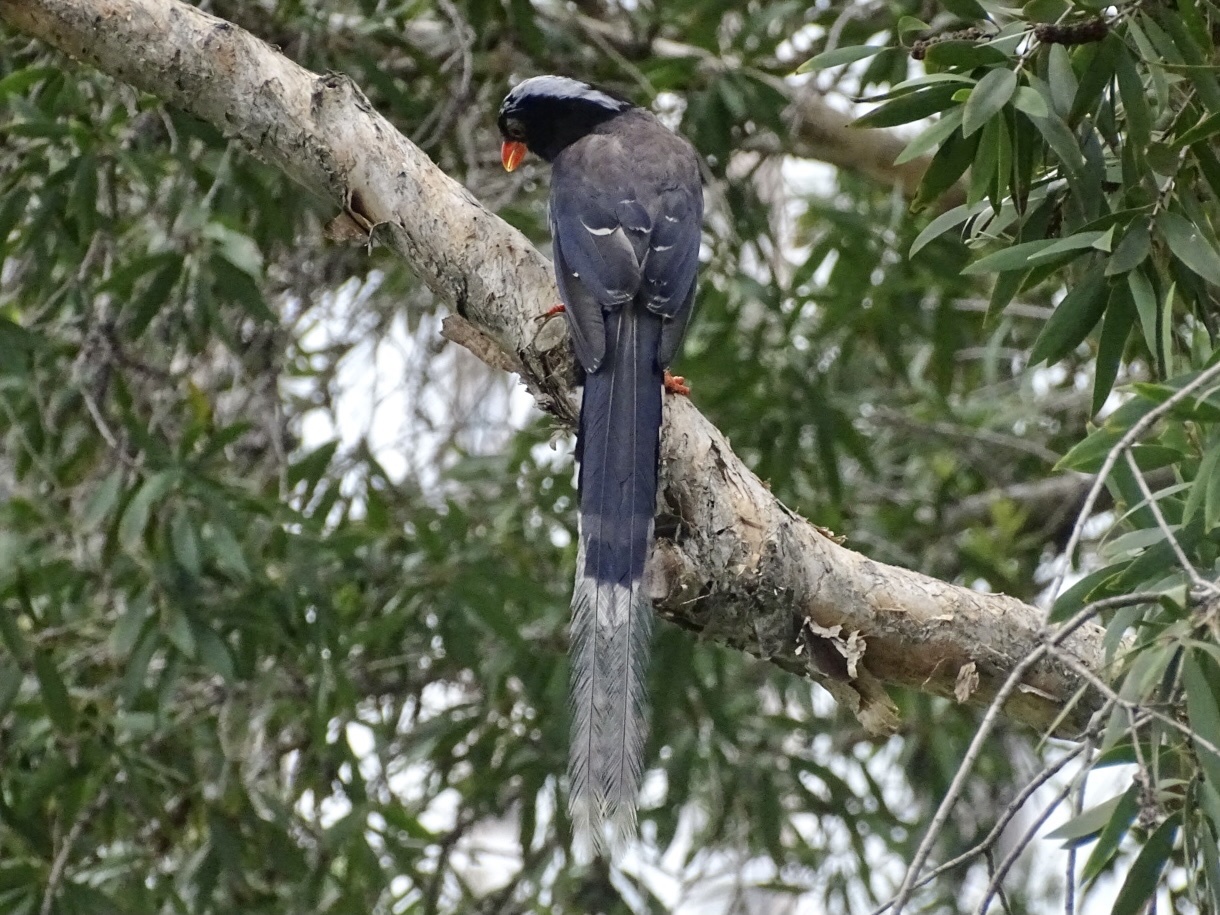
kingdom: Animalia
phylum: Chordata
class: Aves
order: Passeriformes
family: Corvidae
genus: Urocissa
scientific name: Urocissa erythroryncha
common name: Red-billed blue magpie
